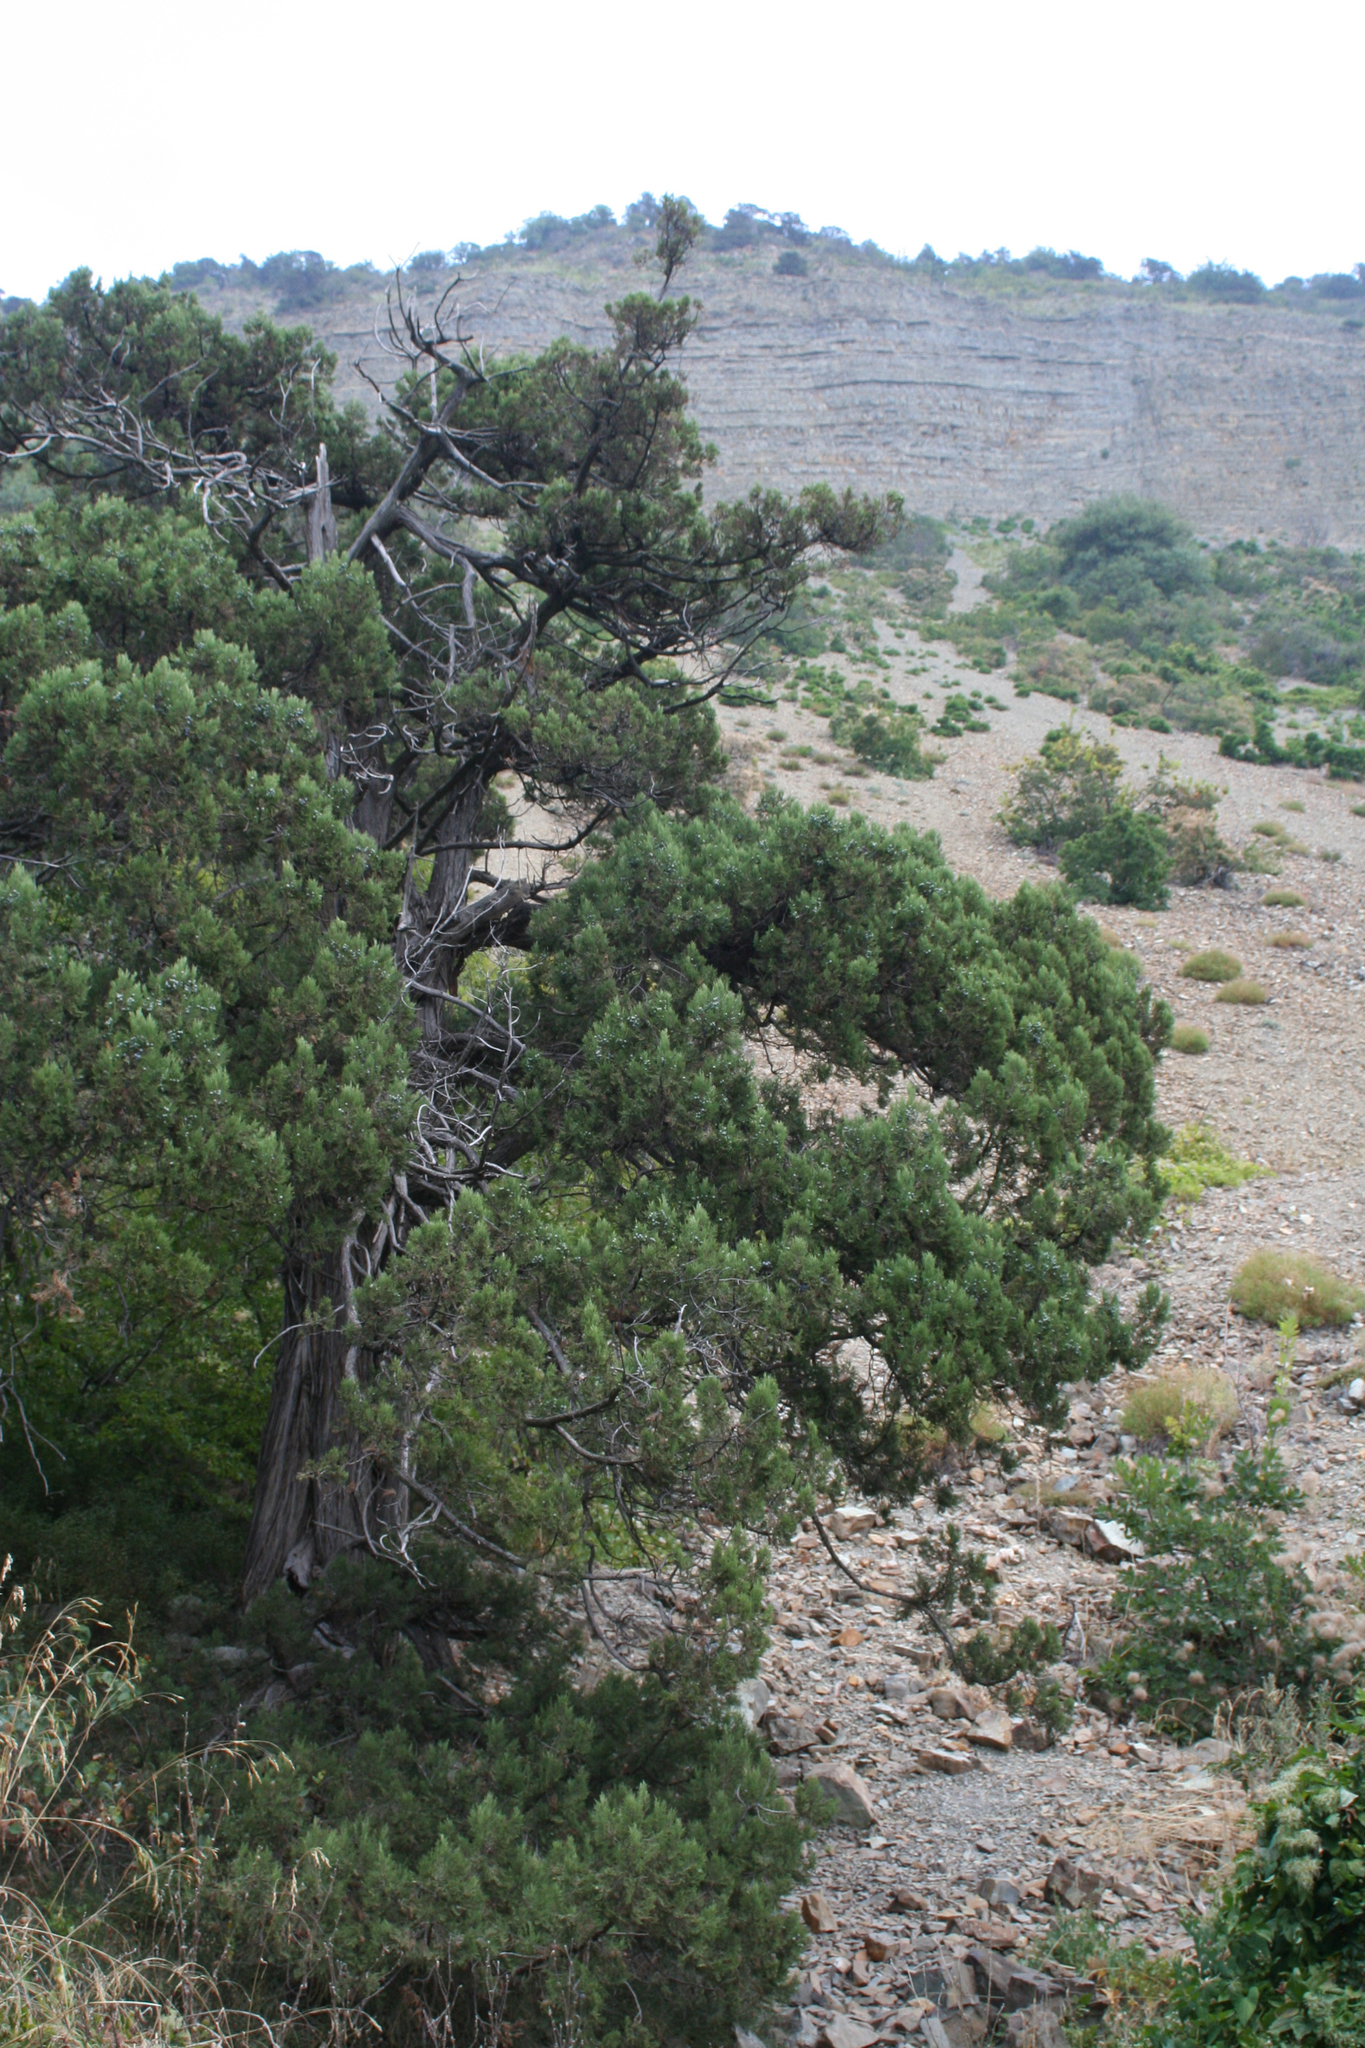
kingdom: Plantae
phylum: Tracheophyta
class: Pinopsida
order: Pinales
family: Cupressaceae
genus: Juniperus
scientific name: Juniperus excelsa
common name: Crimean juniper
